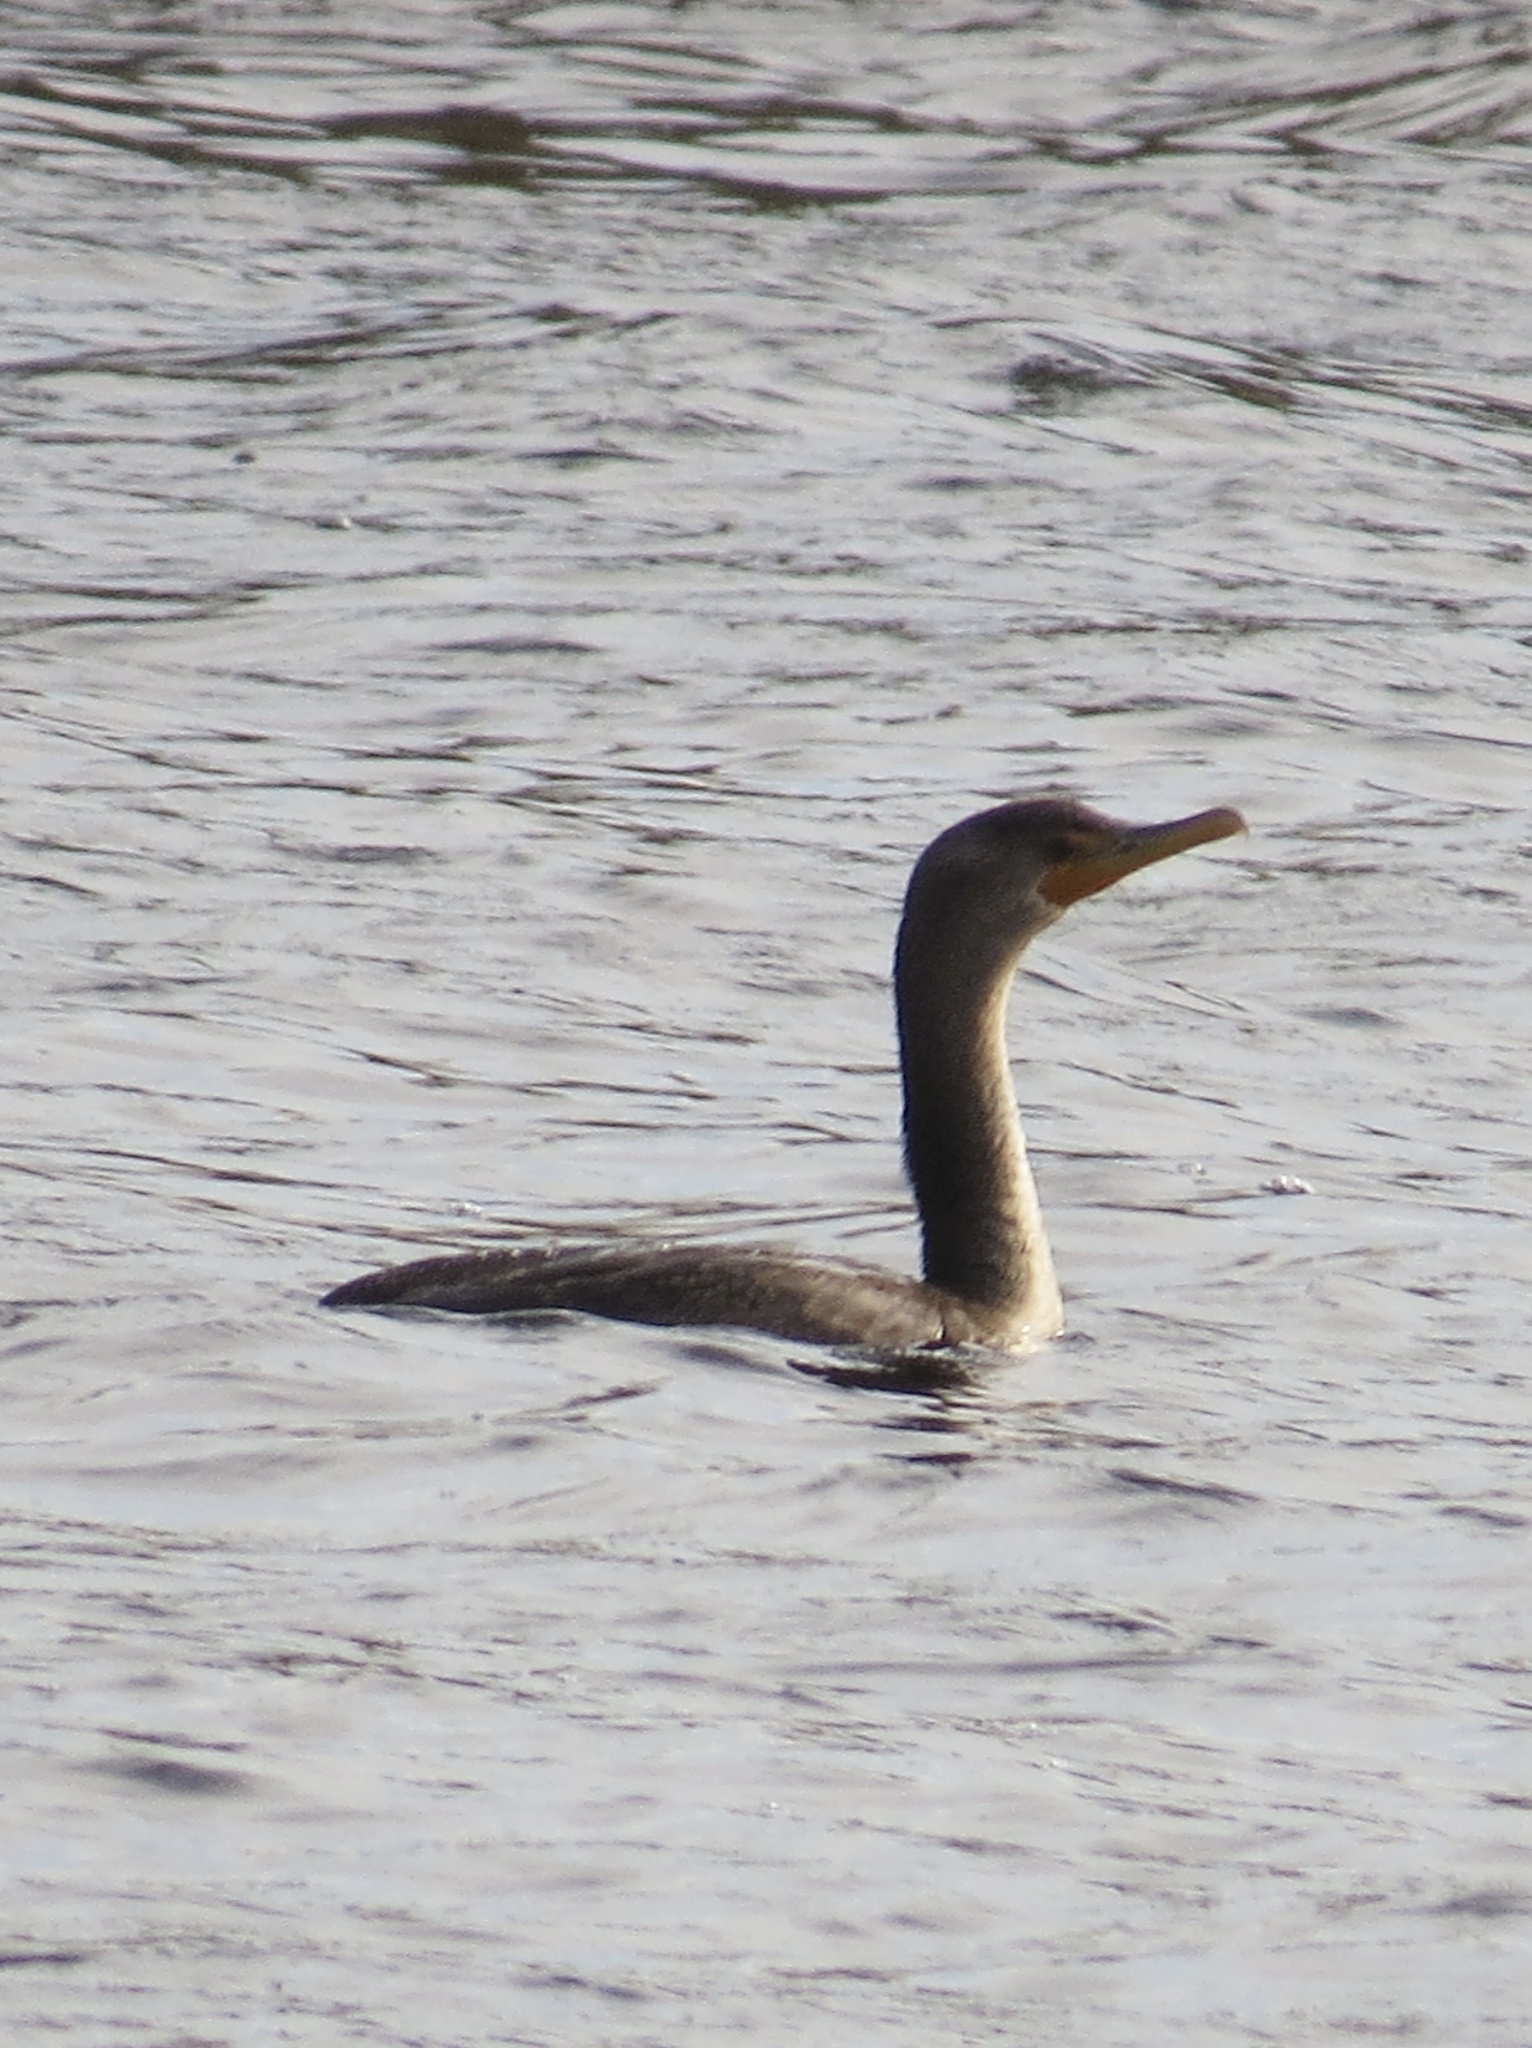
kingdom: Animalia
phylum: Chordata
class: Aves
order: Suliformes
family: Phalacrocoracidae
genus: Phalacrocorax
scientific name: Phalacrocorax auritus
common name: Double-crested cormorant
